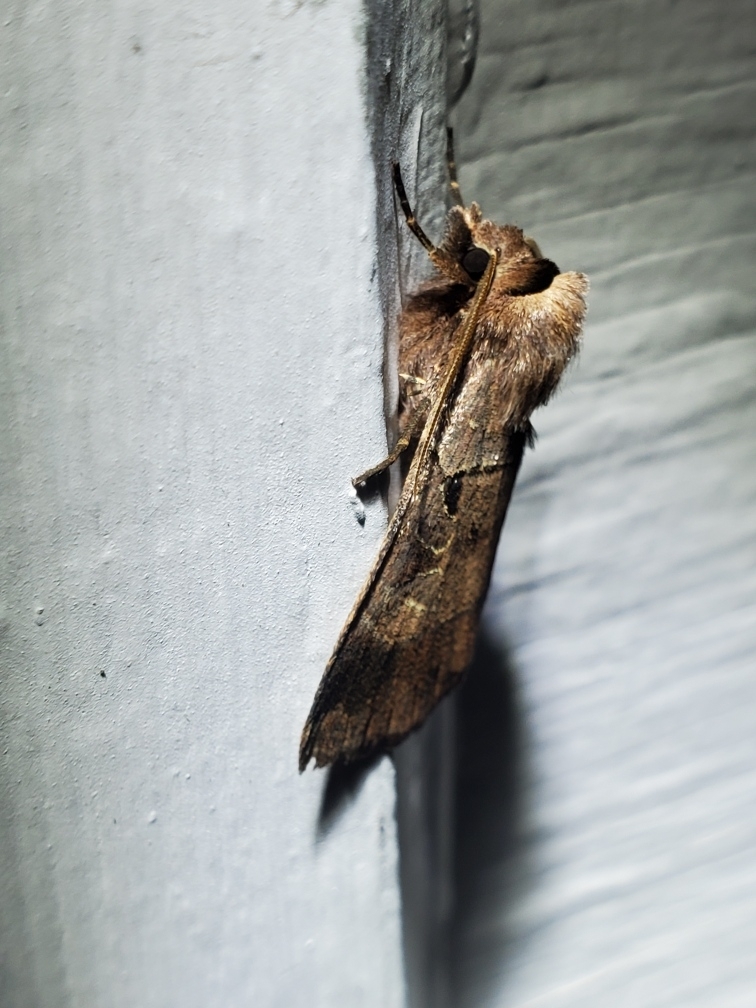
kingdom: Animalia
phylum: Arthropoda
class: Insecta
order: Lepidoptera
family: Noctuidae
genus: Agnorisma
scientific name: Agnorisma badinodis
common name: Pale-banded dart
